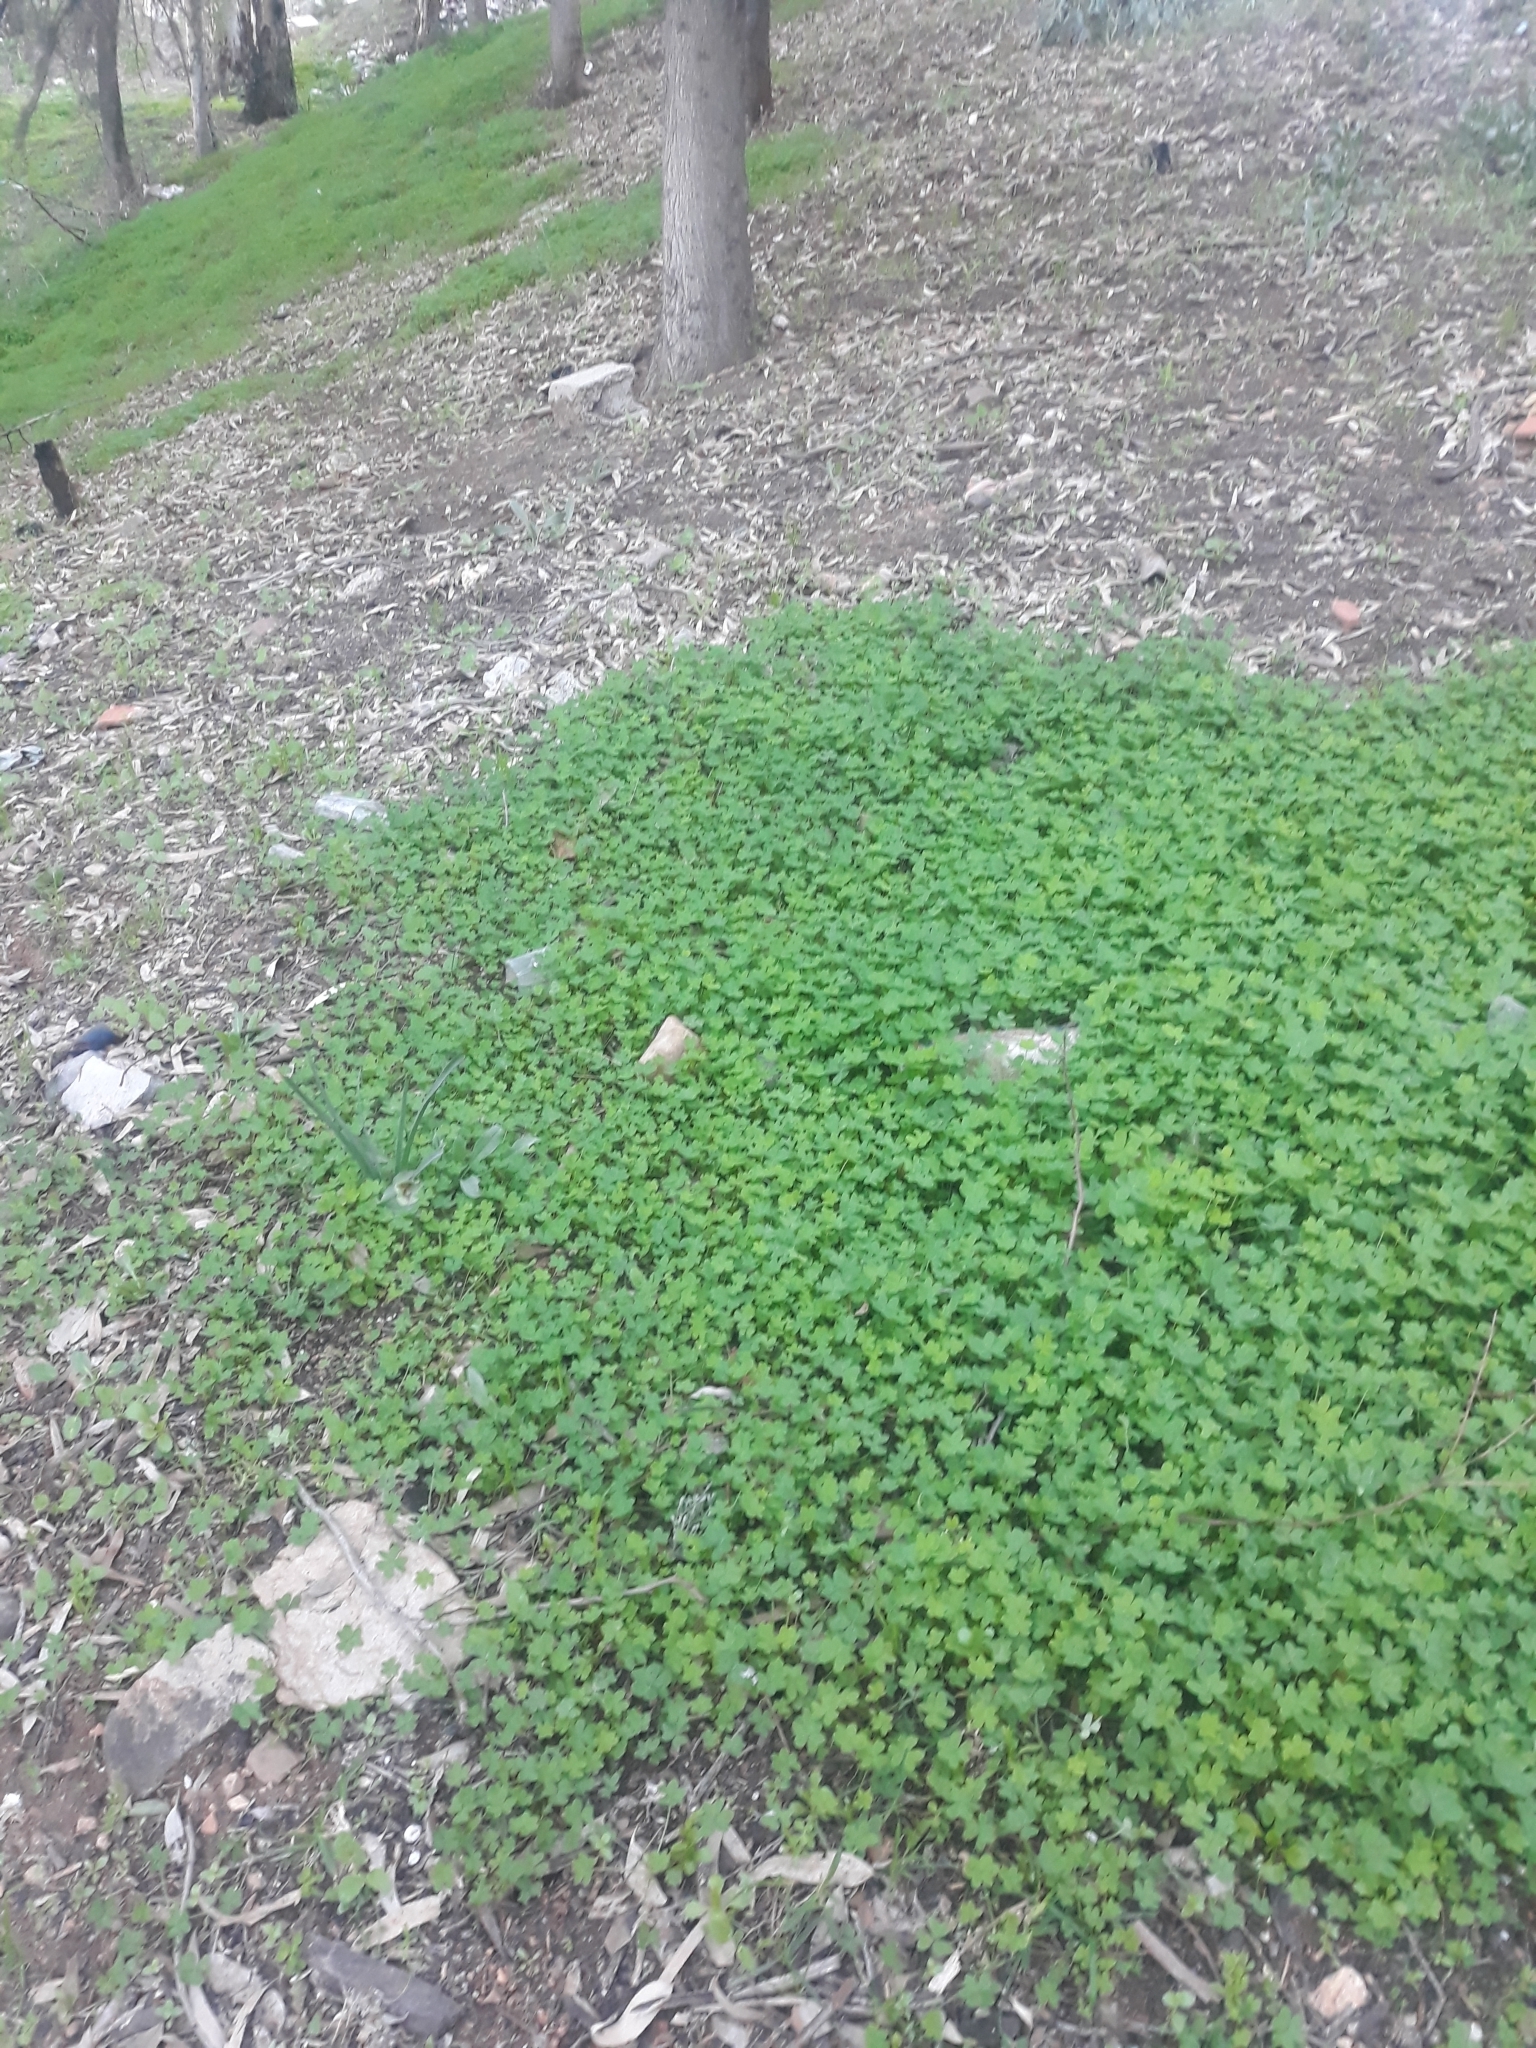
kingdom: Plantae
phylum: Tracheophyta
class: Magnoliopsida
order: Oxalidales
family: Oxalidaceae
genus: Oxalis
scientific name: Oxalis pes-caprae
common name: Bermuda-buttercup
